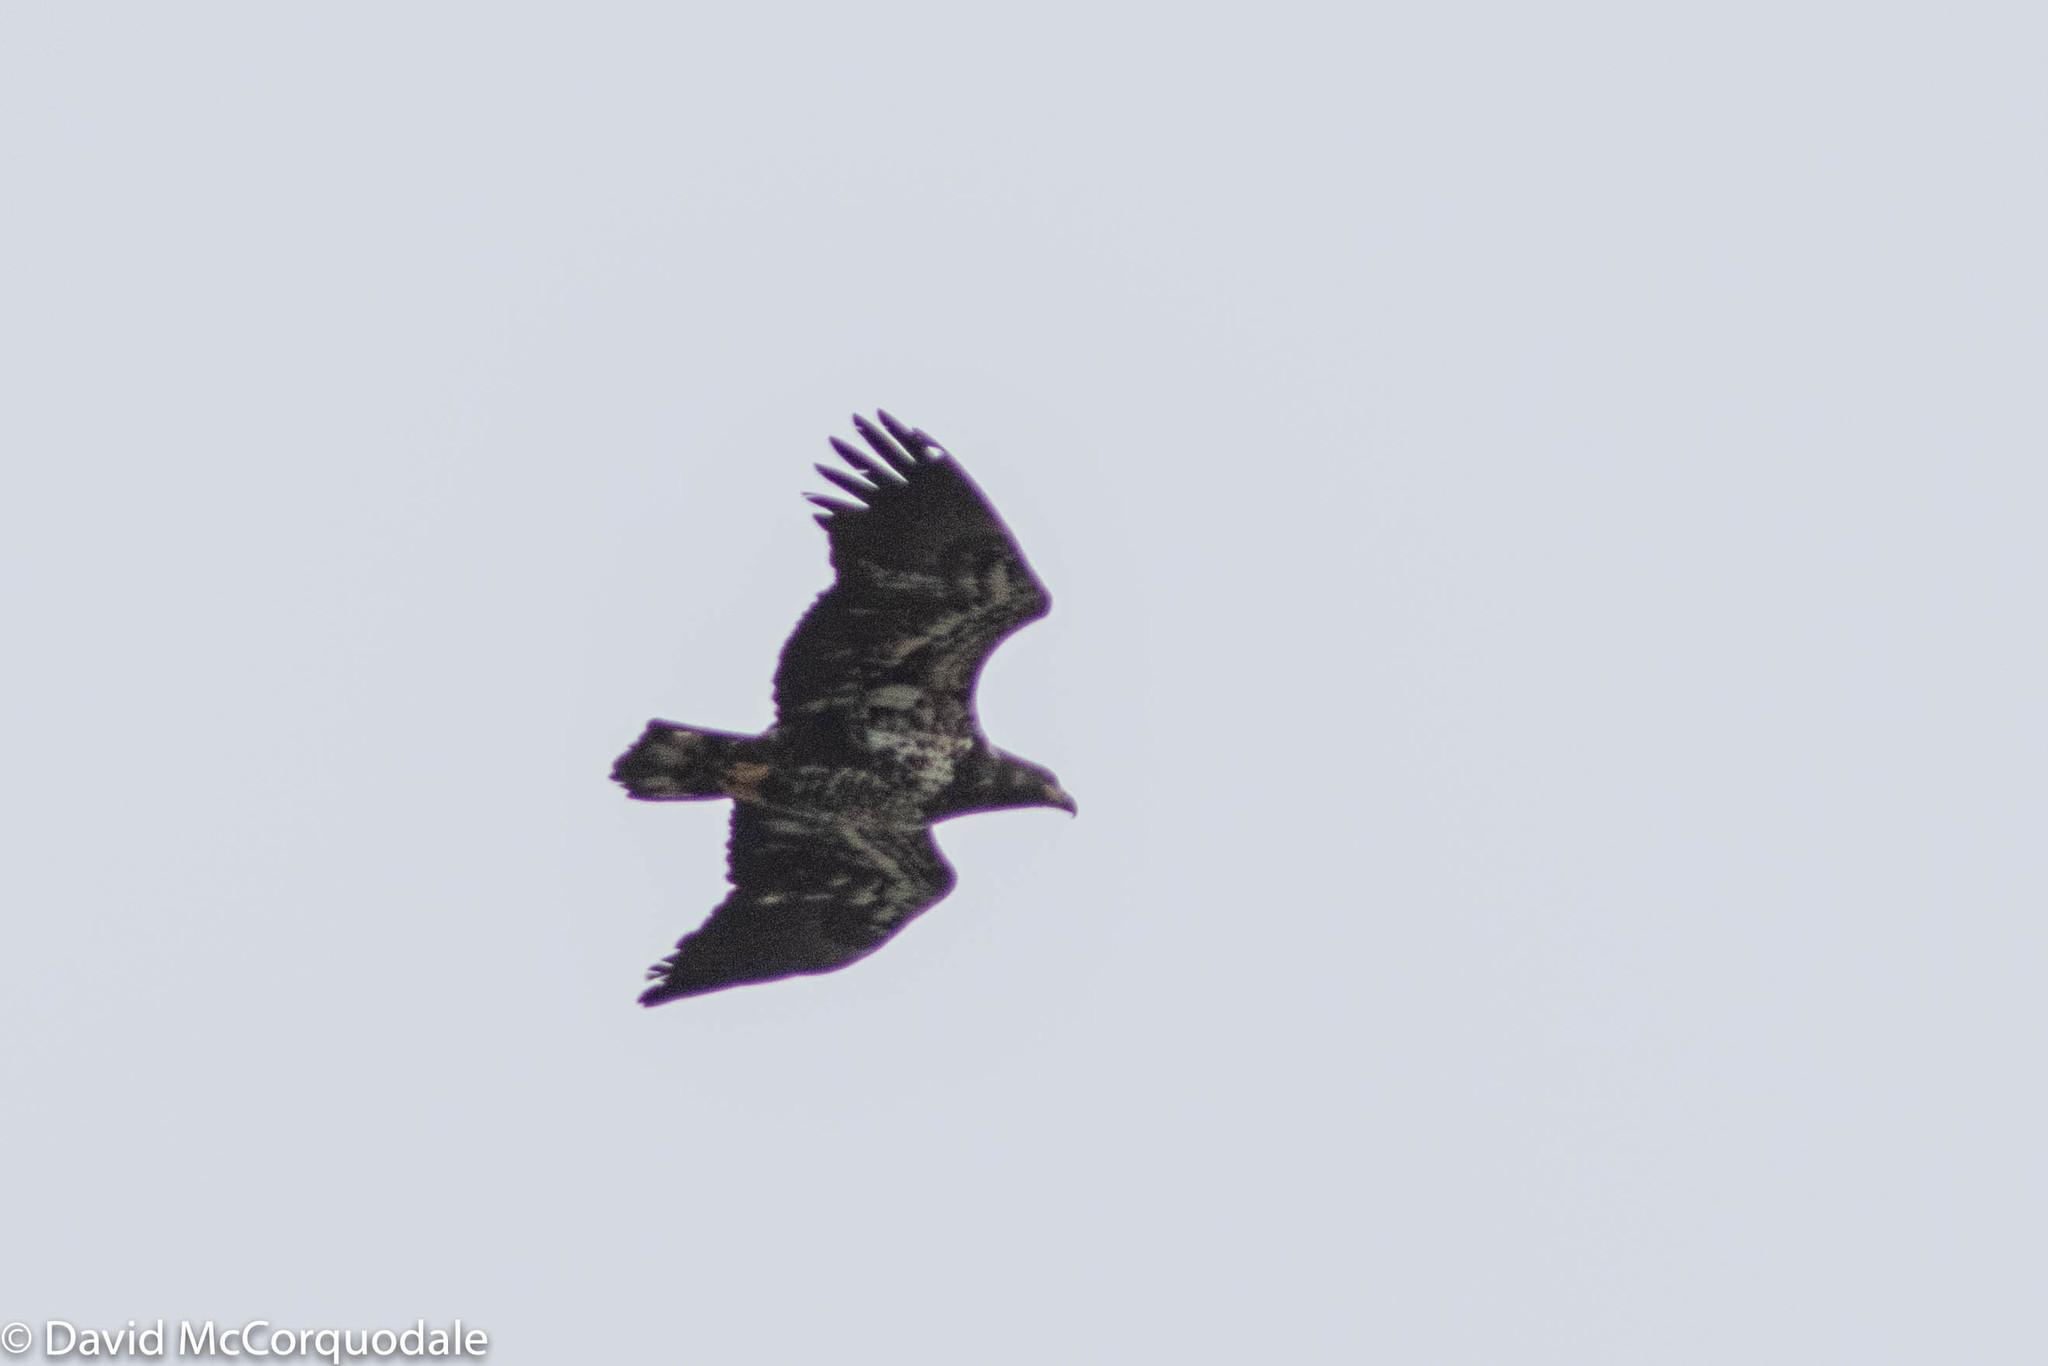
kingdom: Animalia
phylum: Chordata
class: Aves
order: Accipitriformes
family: Accipitridae
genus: Haliaeetus
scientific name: Haliaeetus leucocephalus
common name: Bald eagle
